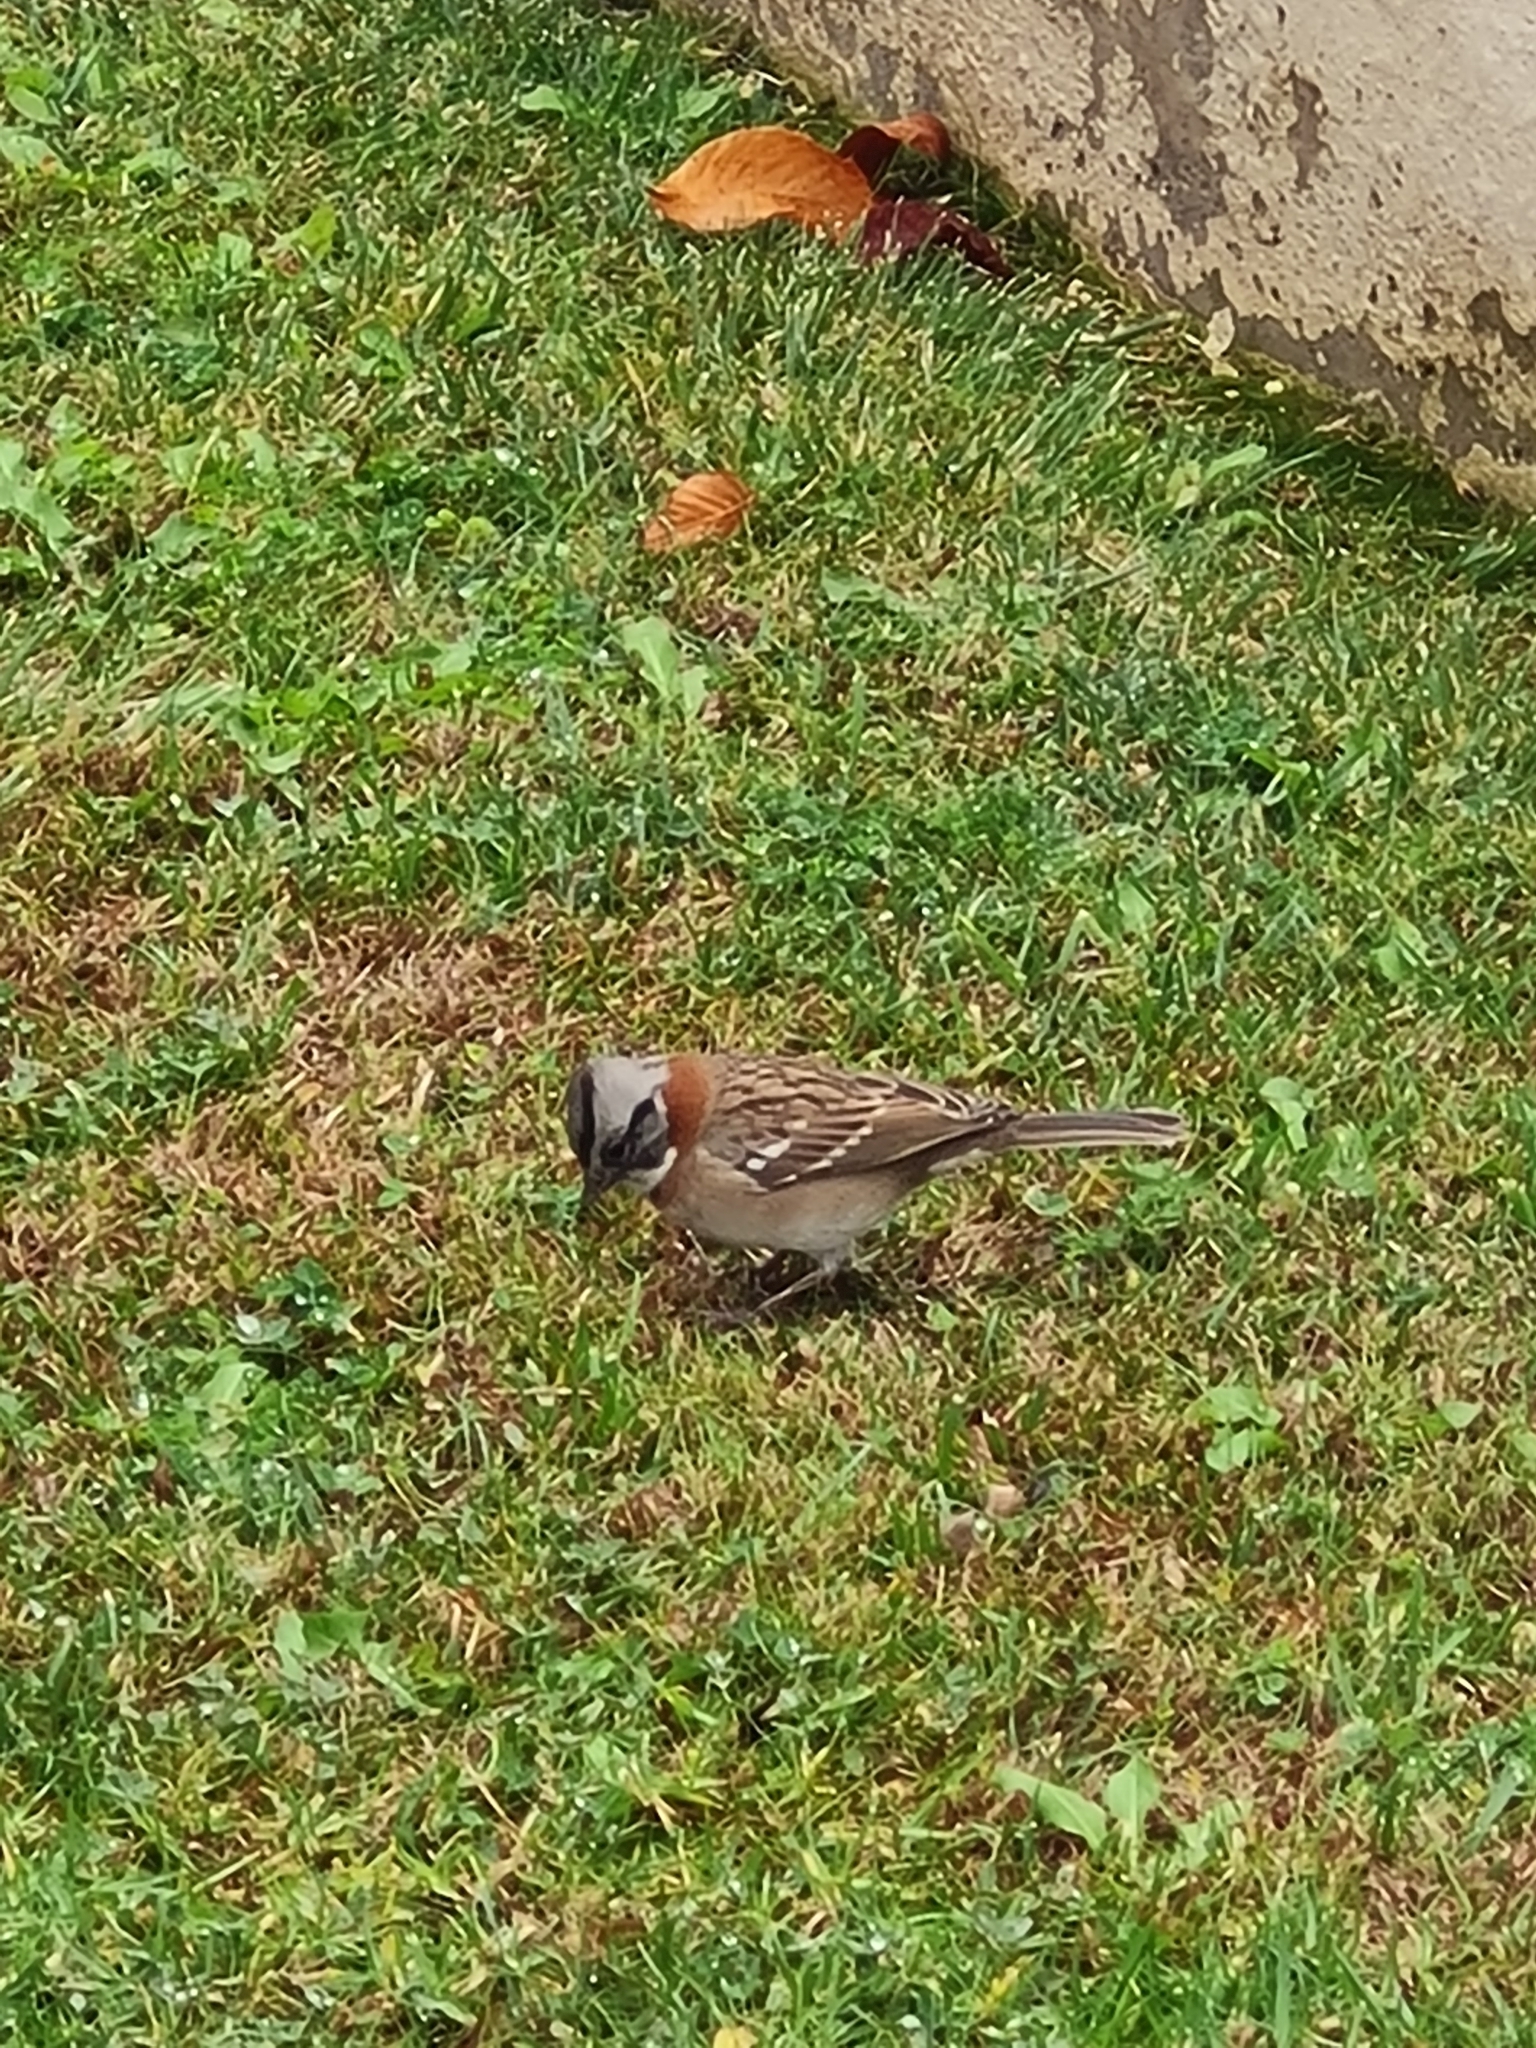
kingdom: Animalia
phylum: Chordata
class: Aves
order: Passeriformes
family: Passerellidae
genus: Zonotrichia
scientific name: Zonotrichia capensis
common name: Rufous-collared sparrow
